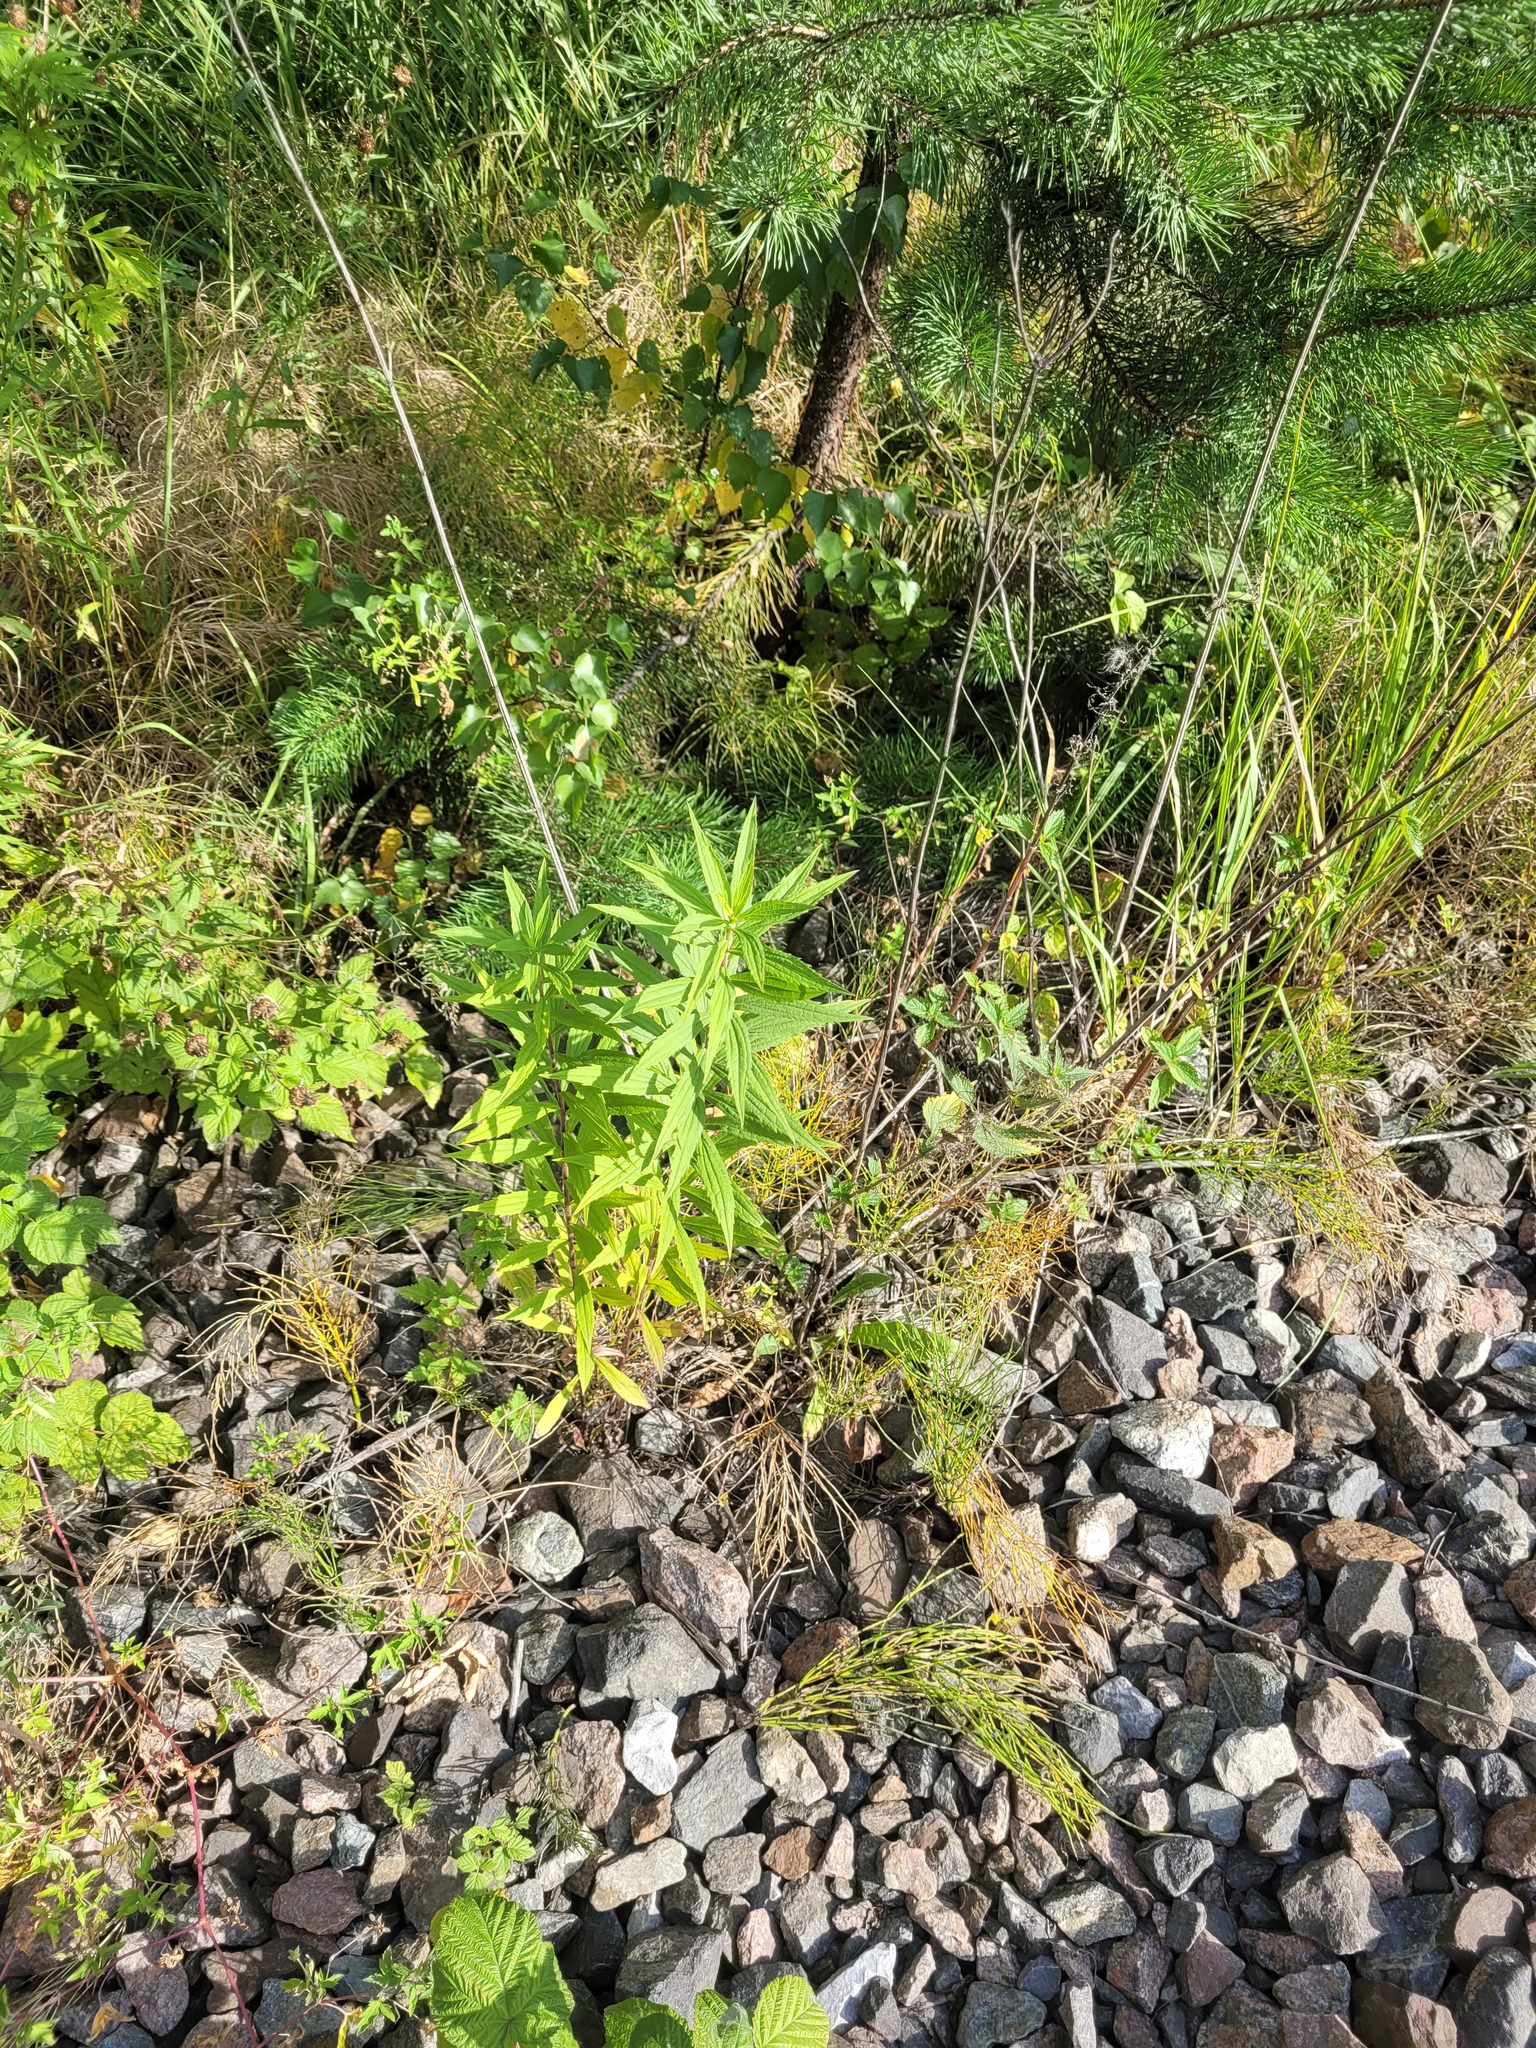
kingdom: Plantae
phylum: Tracheophyta
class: Magnoliopsida
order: Asterales
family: Asteraceae
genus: Solidago
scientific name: Solidago canadensis
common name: Canada goldenrod
